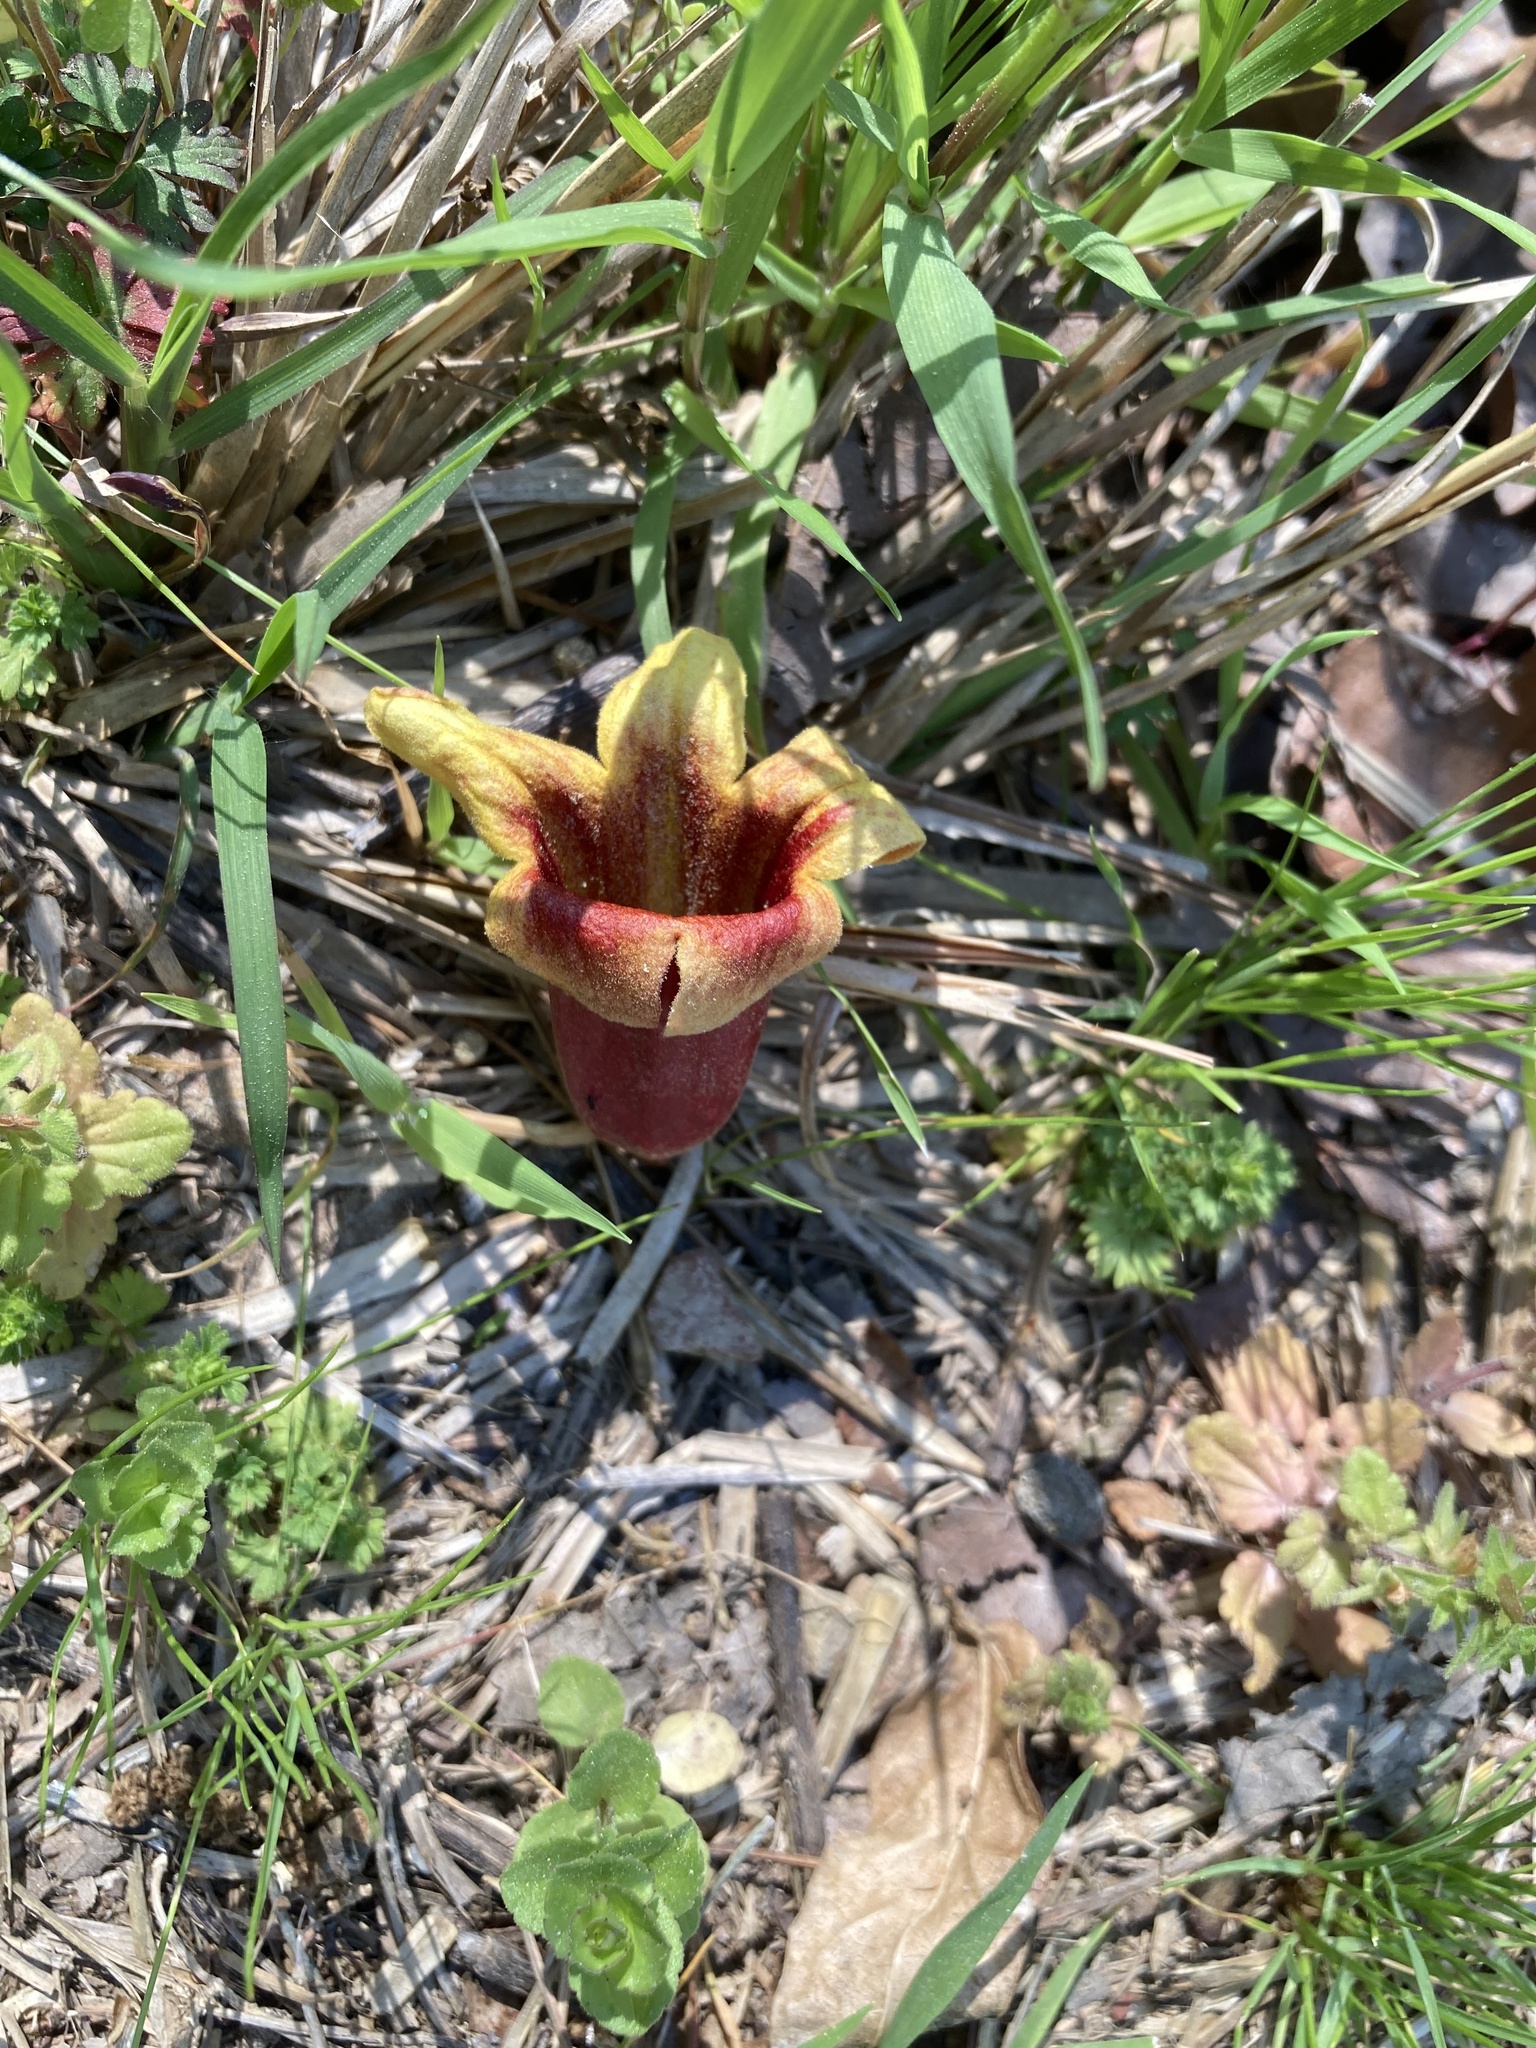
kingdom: Plantae
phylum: Tracheophyta
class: Magnoliopsida
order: Lamiales
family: Bignoniaceae
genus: Bignonia
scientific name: Bignonia capreolata
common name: Crossvine
